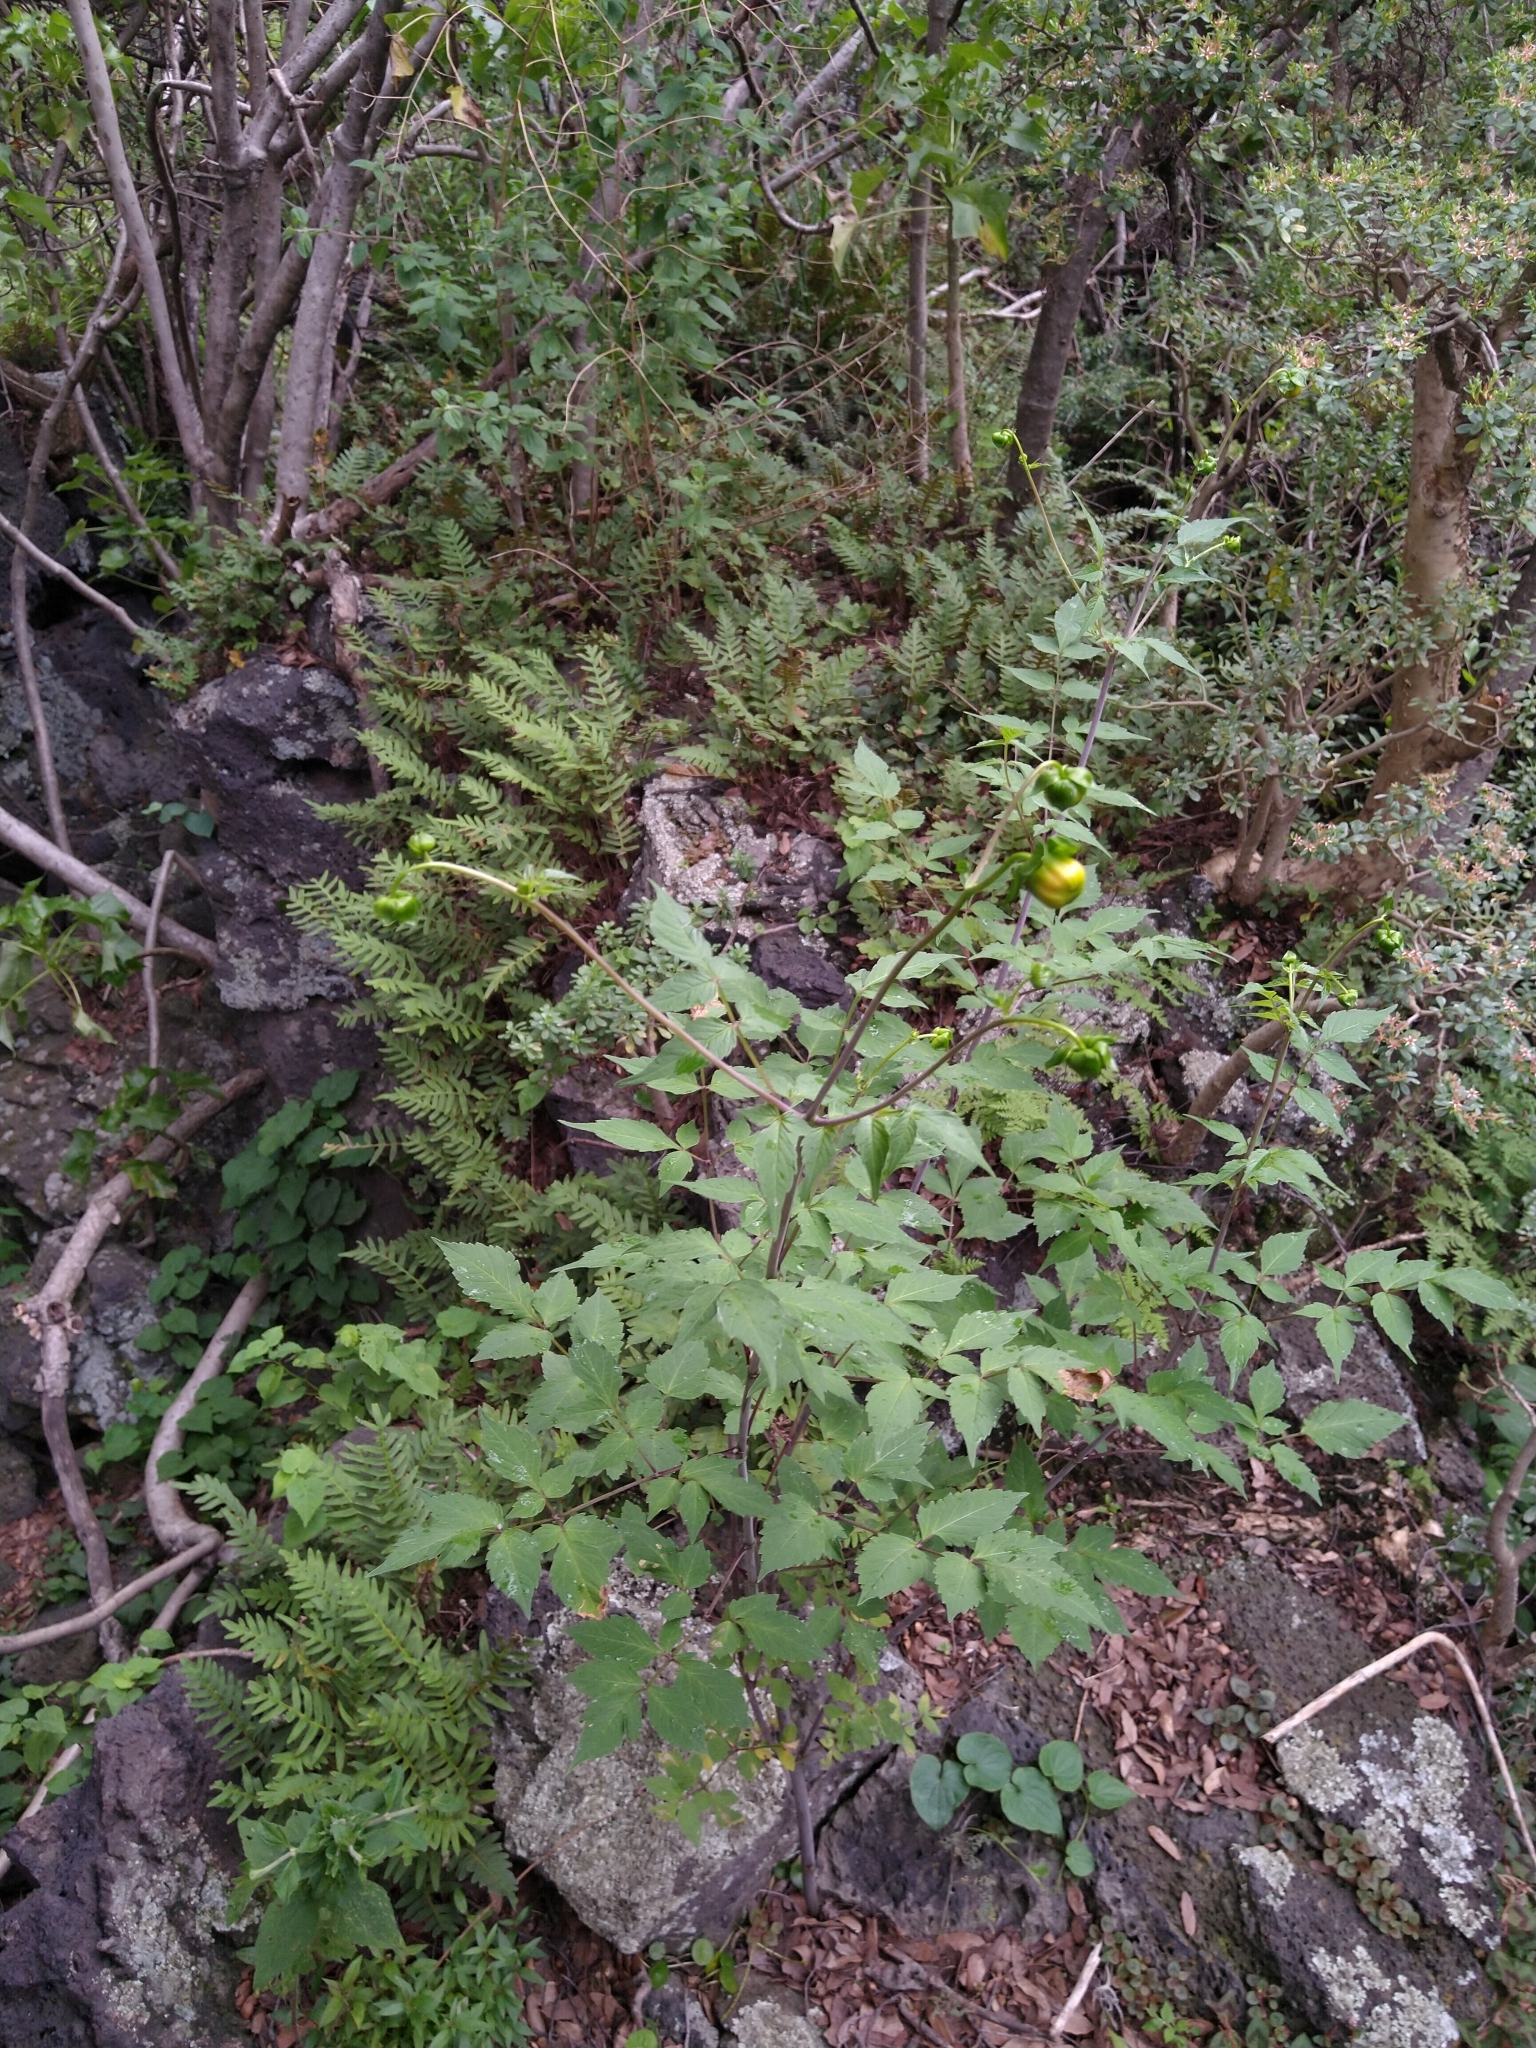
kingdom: Plantae
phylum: Tracheophyta
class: Magnoliopsida
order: Asterales
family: Asteraceae
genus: Dahlia
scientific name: Dahlia coccinea
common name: Red dahlia
